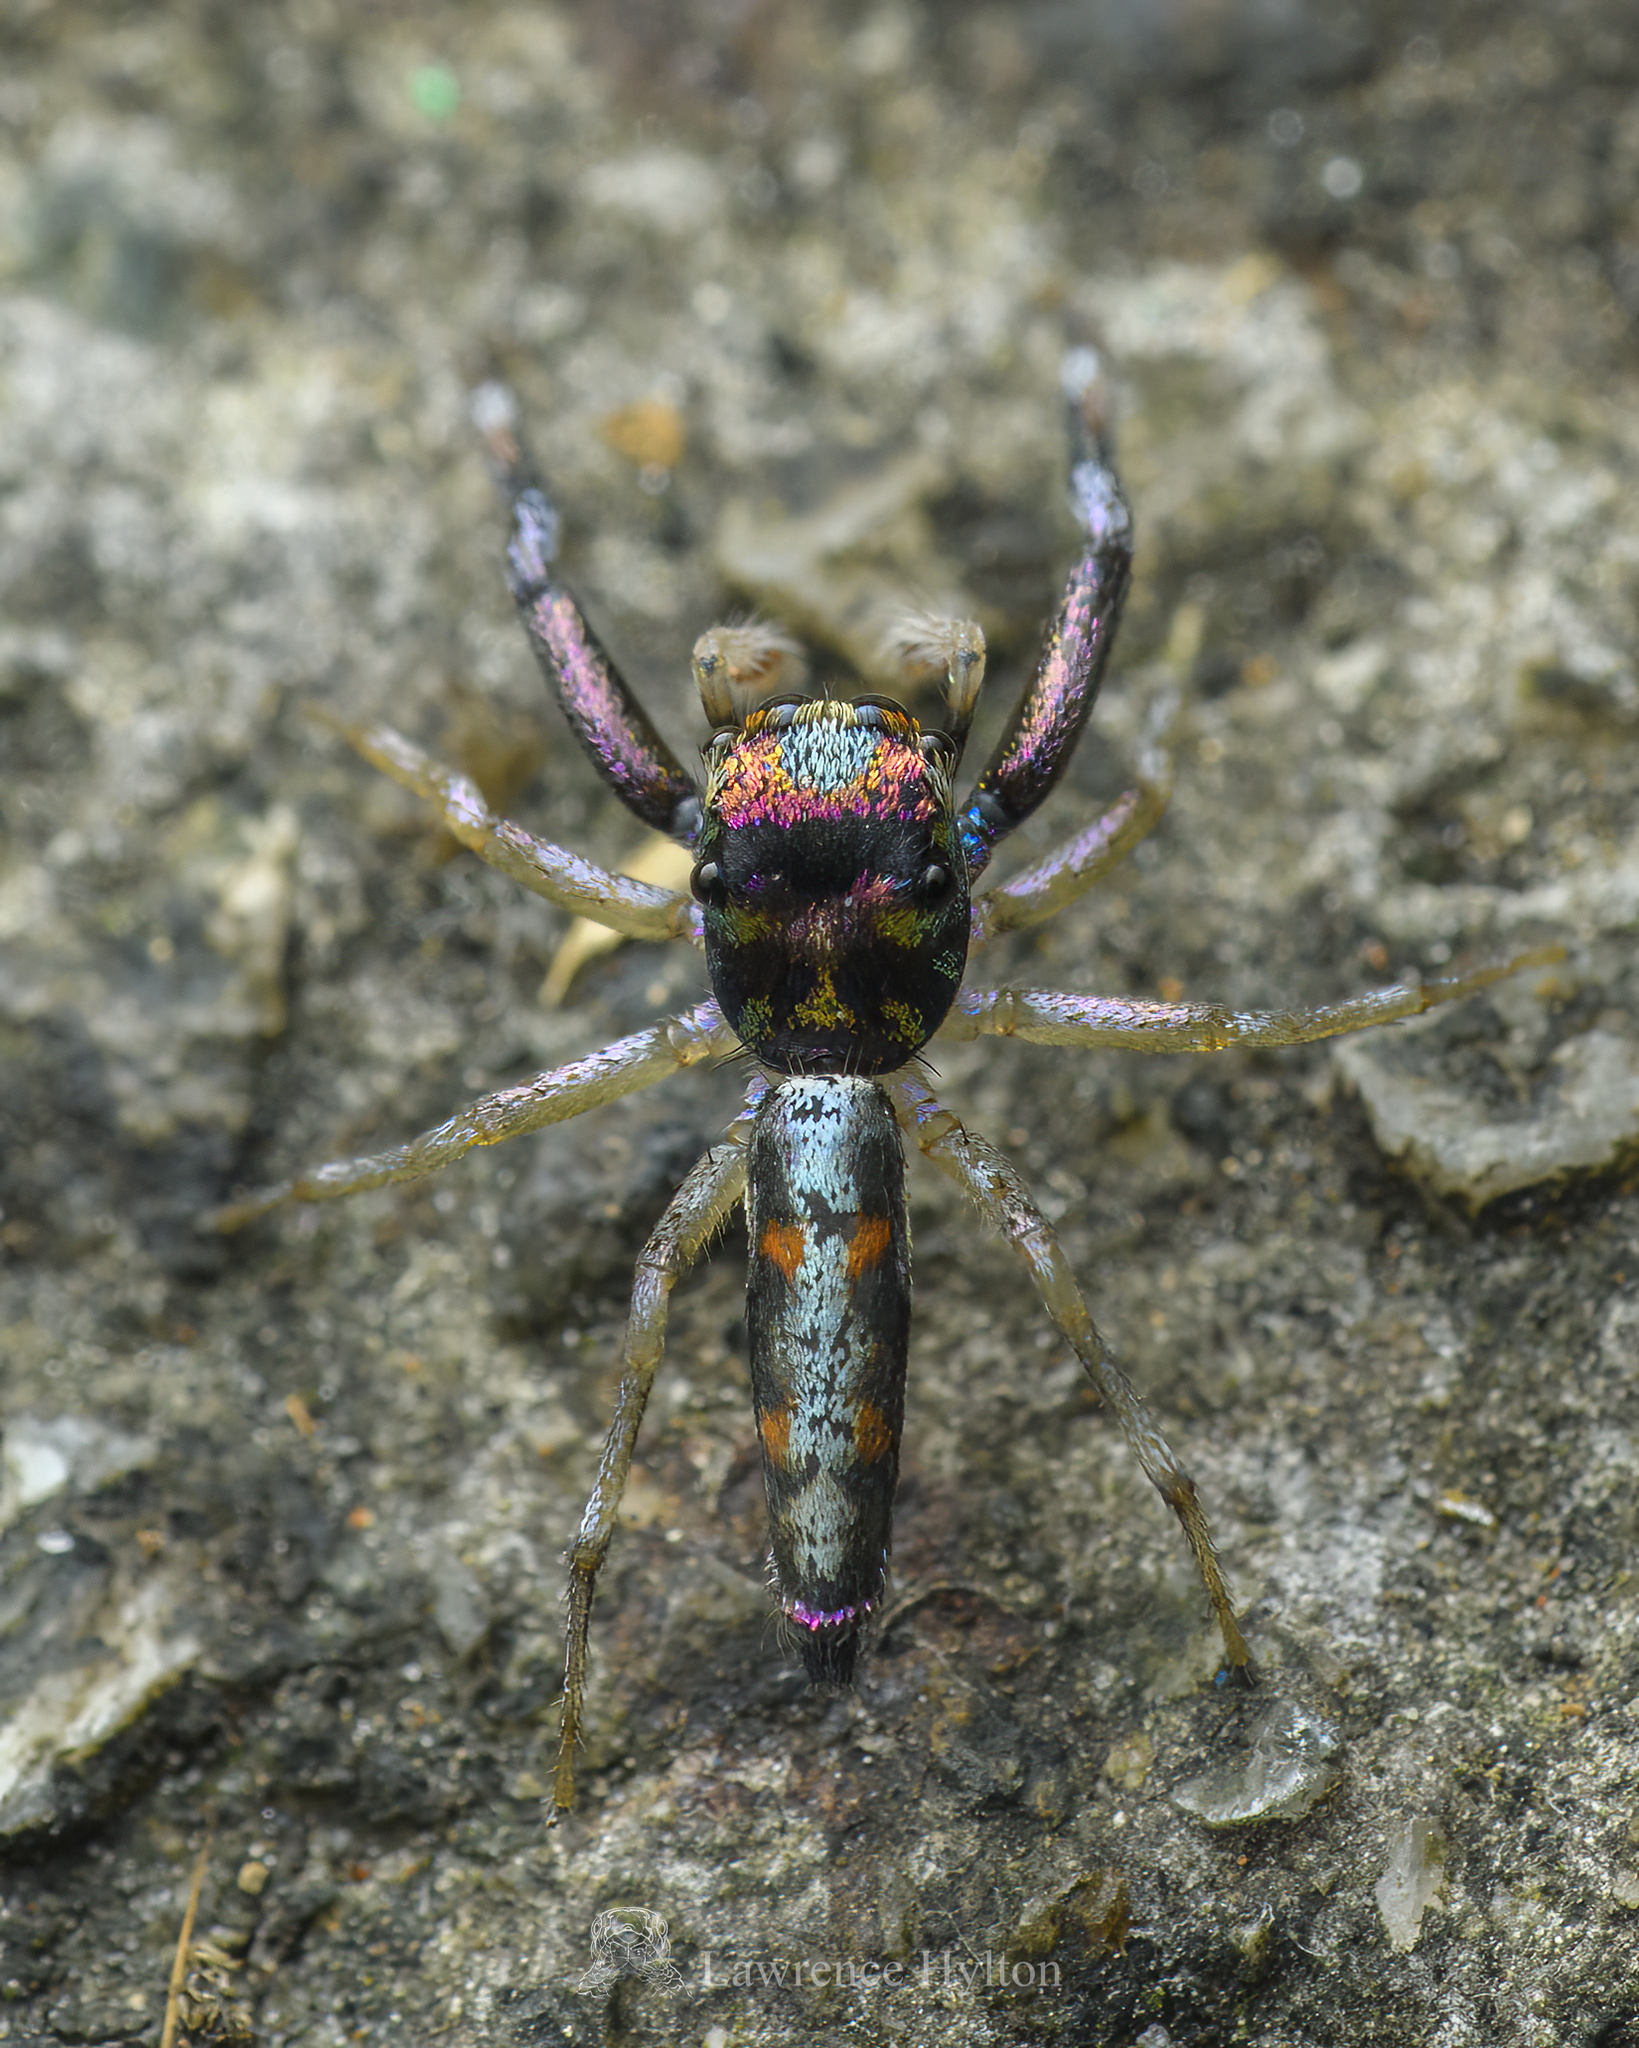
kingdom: Animalia
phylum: Arthropoda
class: Arachnida
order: Araneae
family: Salticidae
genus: Chrysilla
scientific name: Chrysilla acerosa
